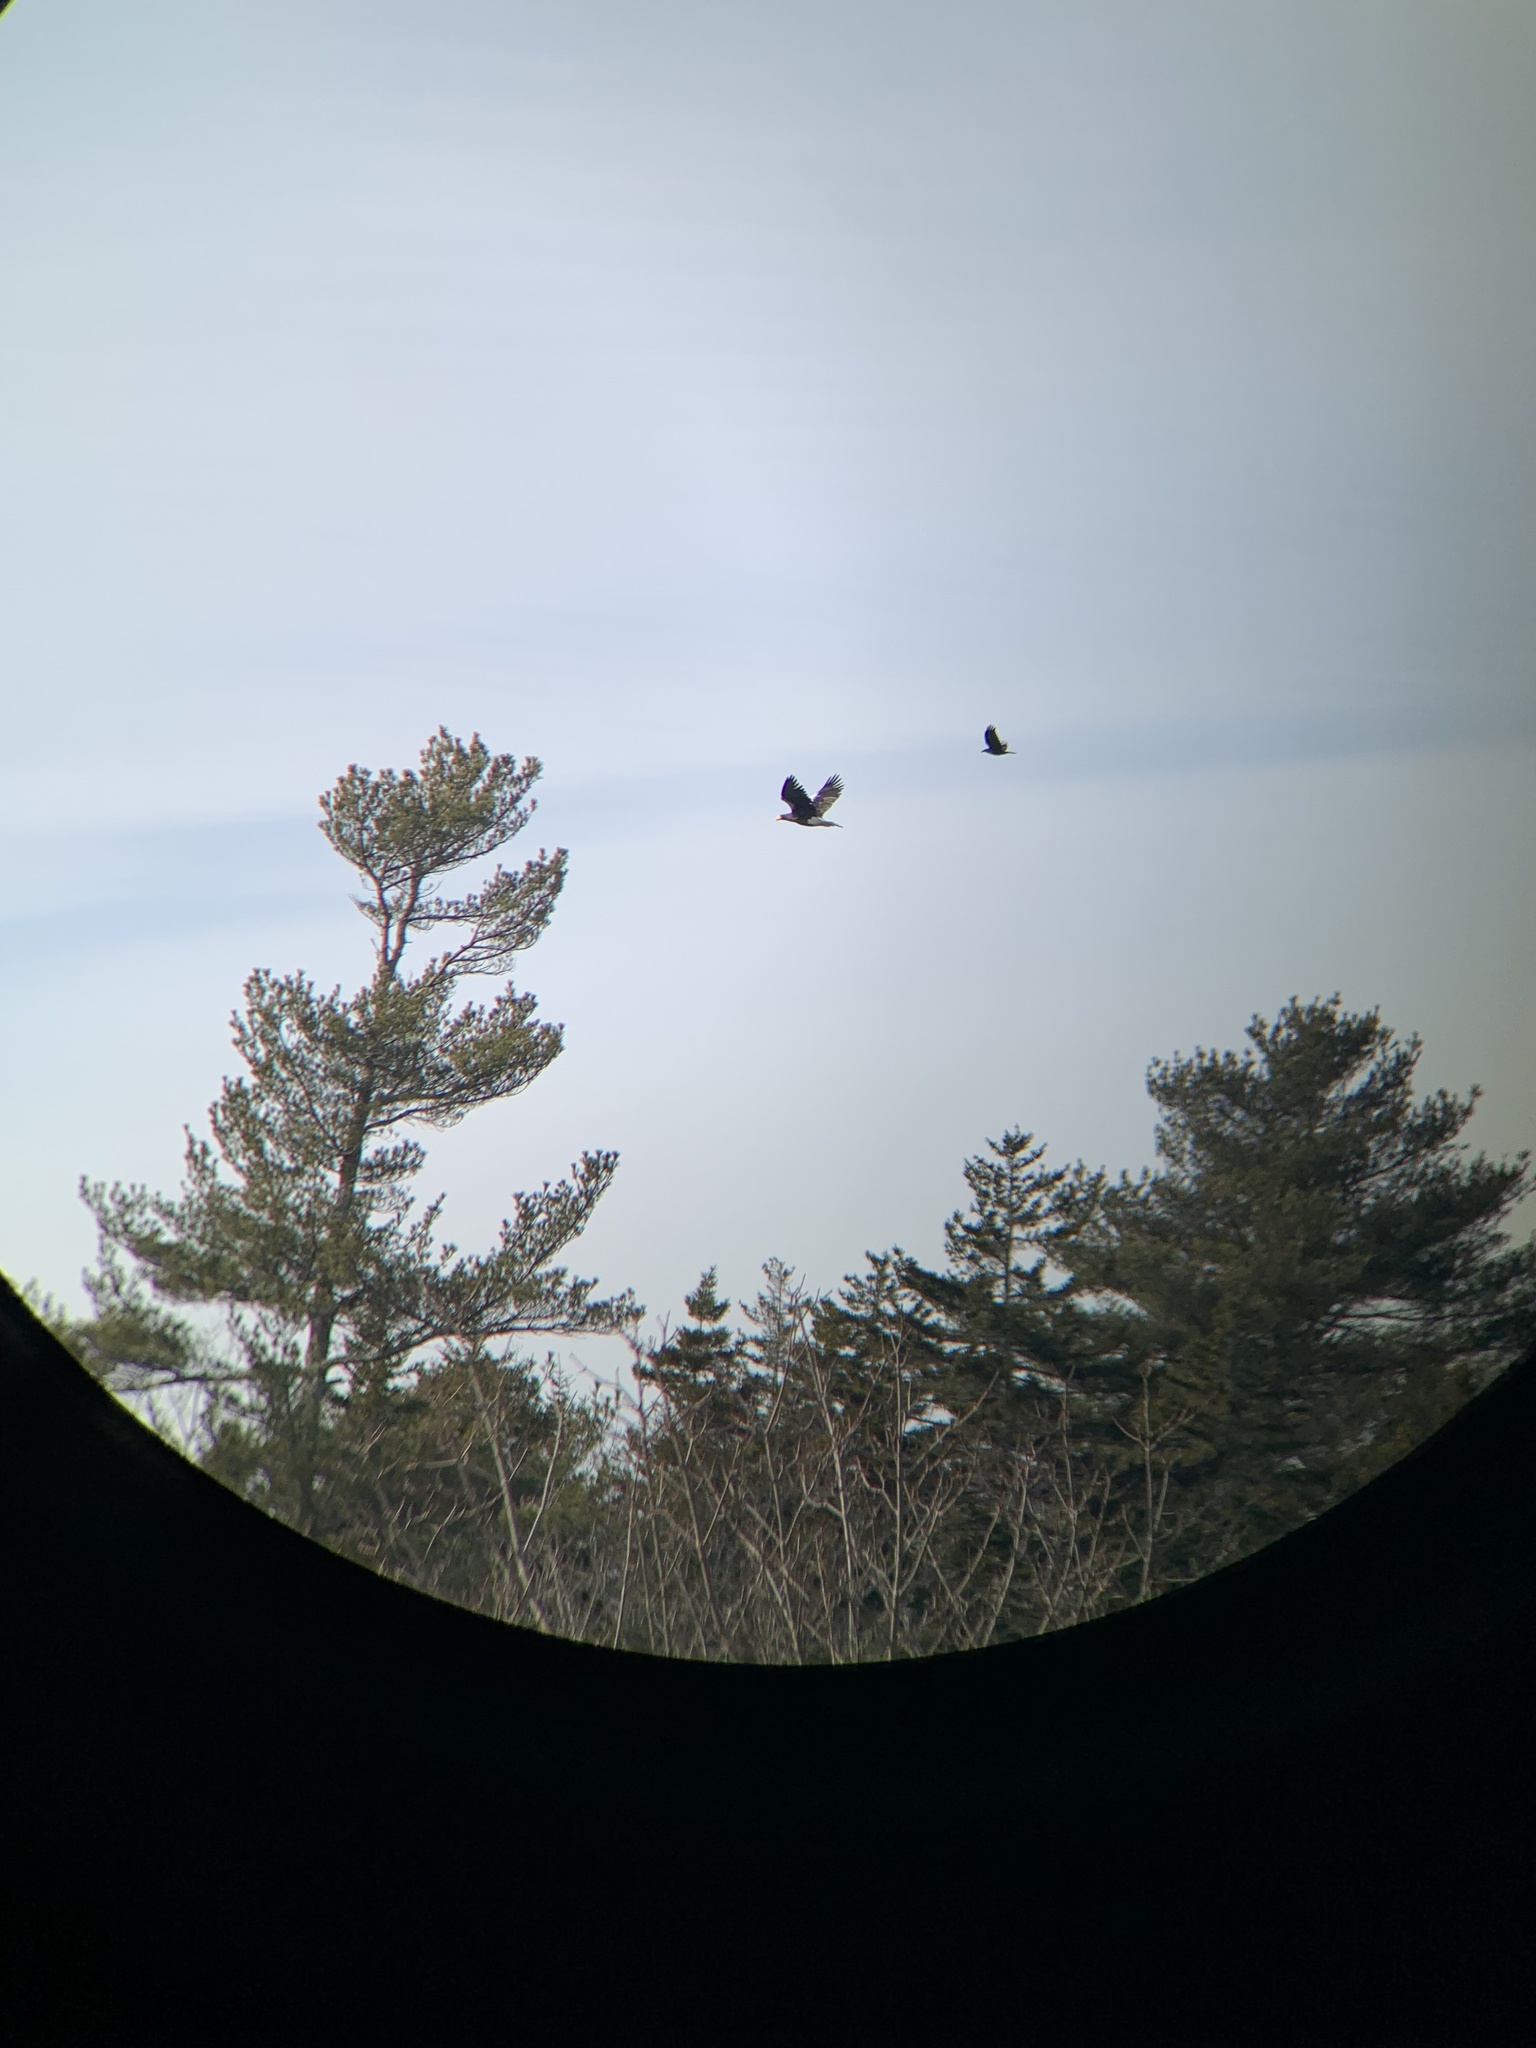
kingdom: Animalia
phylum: Chordata
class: Aves
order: Accipitriformes
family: Accipitridae
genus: Haliaeetus
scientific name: Haliaeetus pelagicus
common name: Steller's sea eagle
